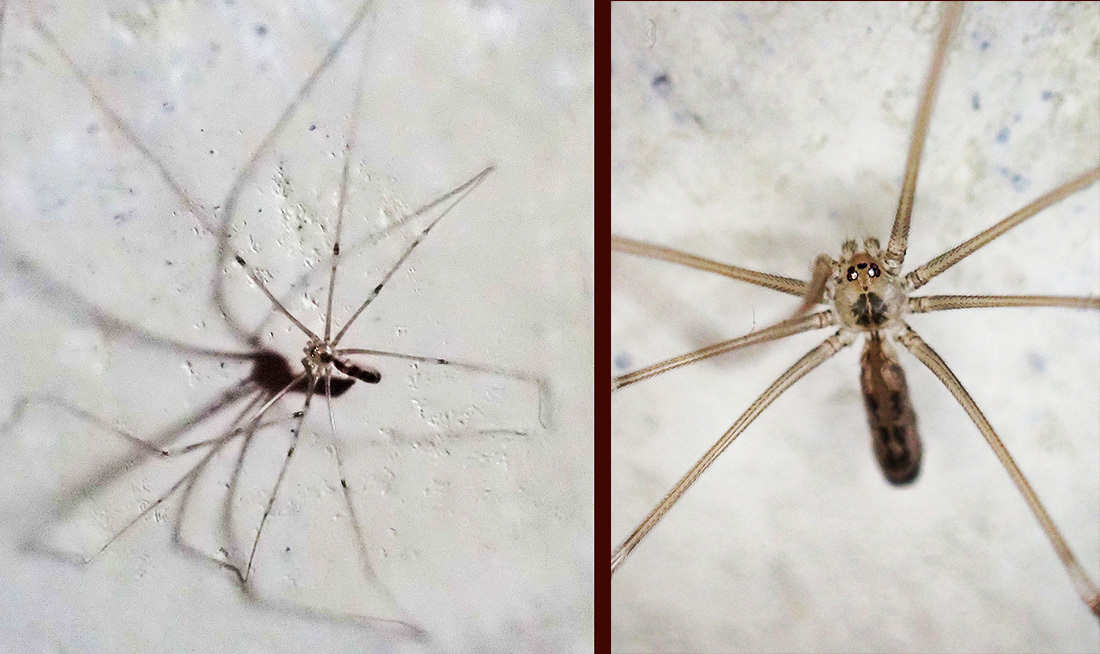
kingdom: Animalia
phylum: Arthropoda
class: Arachnida
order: Araneae
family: Pholcidae
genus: Pholcus
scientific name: Pholcus phalangioides
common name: Longbodied cellar spider
